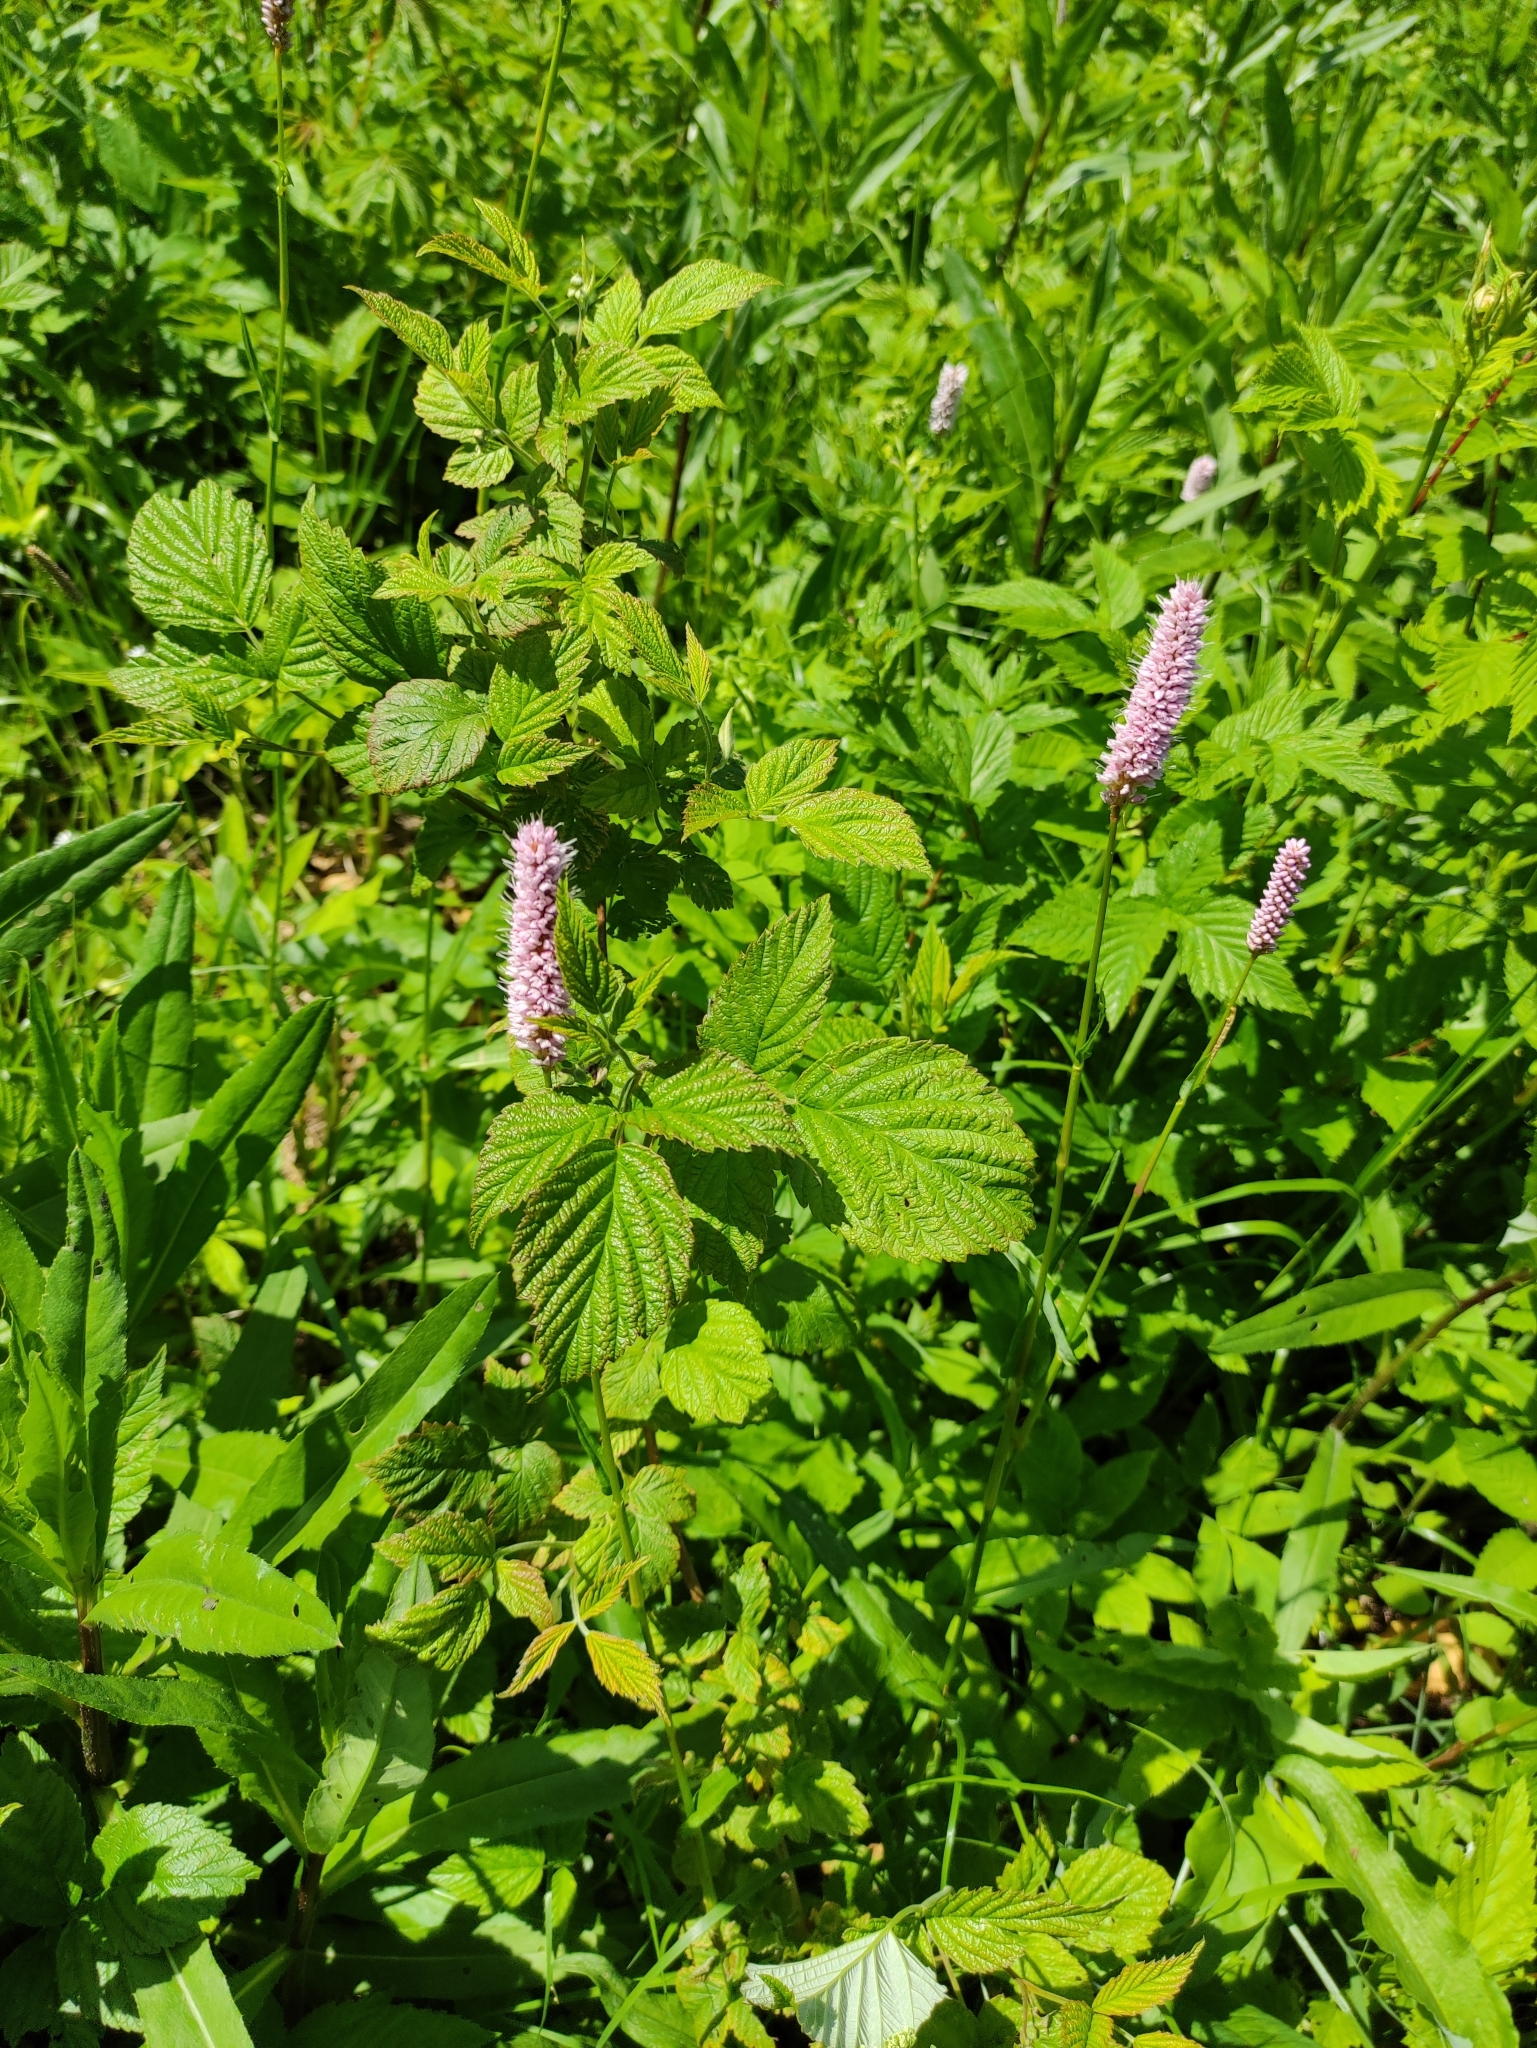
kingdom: Plantae
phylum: Tracheophyta
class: Magnoliopsida
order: Caryophyllales
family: Polygonaceae
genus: Bistorta
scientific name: Bistorta officinalis
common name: Common bistort
